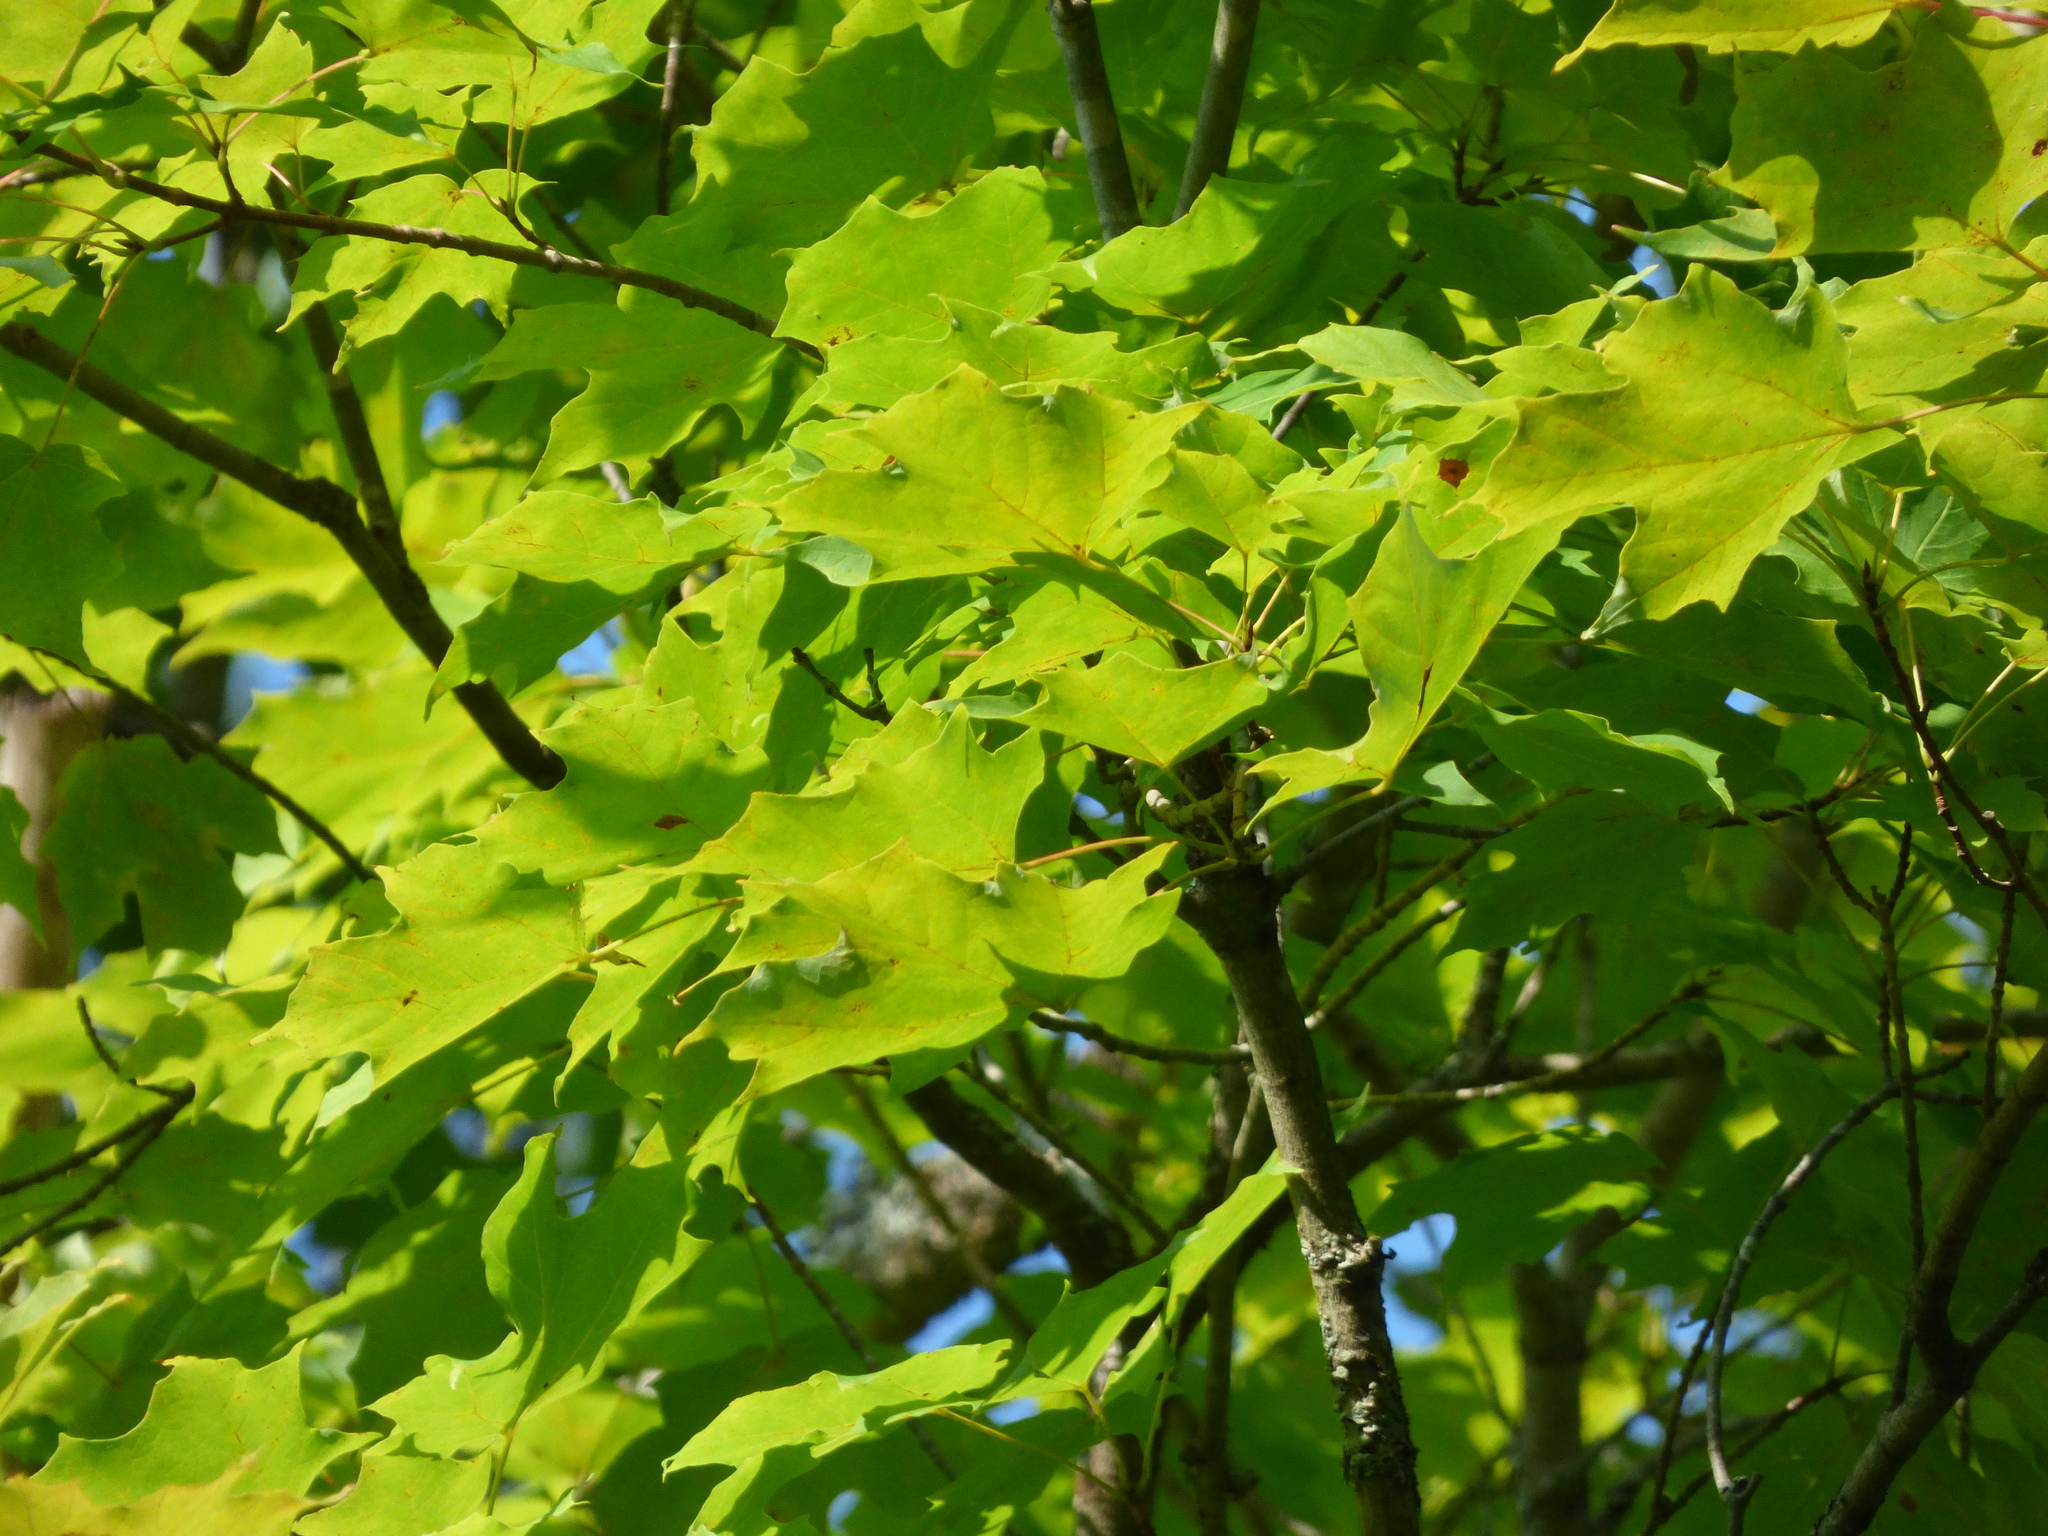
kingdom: Plantae
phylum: Tracheophyta
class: Magnoliopsida
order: Sapindales
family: Sapindaceae
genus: Acer
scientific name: Acer saccharum
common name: Sugar maple
